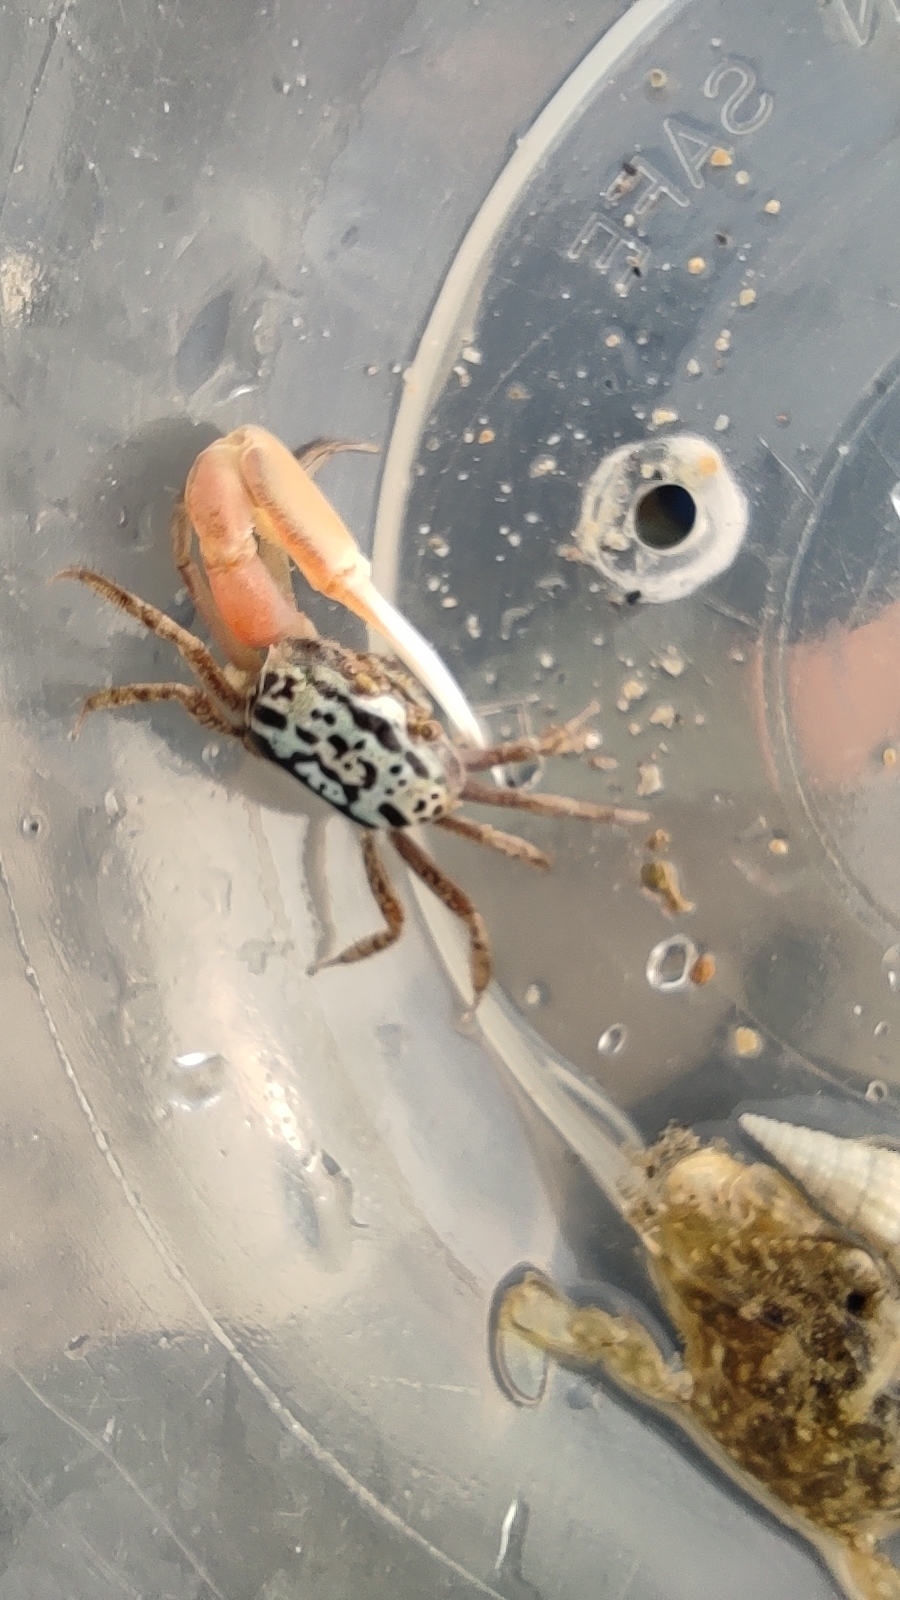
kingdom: Animalia
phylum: Arthropoda
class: Malacostraca
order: Decapoda
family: Ocypodidae
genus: Austruca
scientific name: Austruca annulipes
